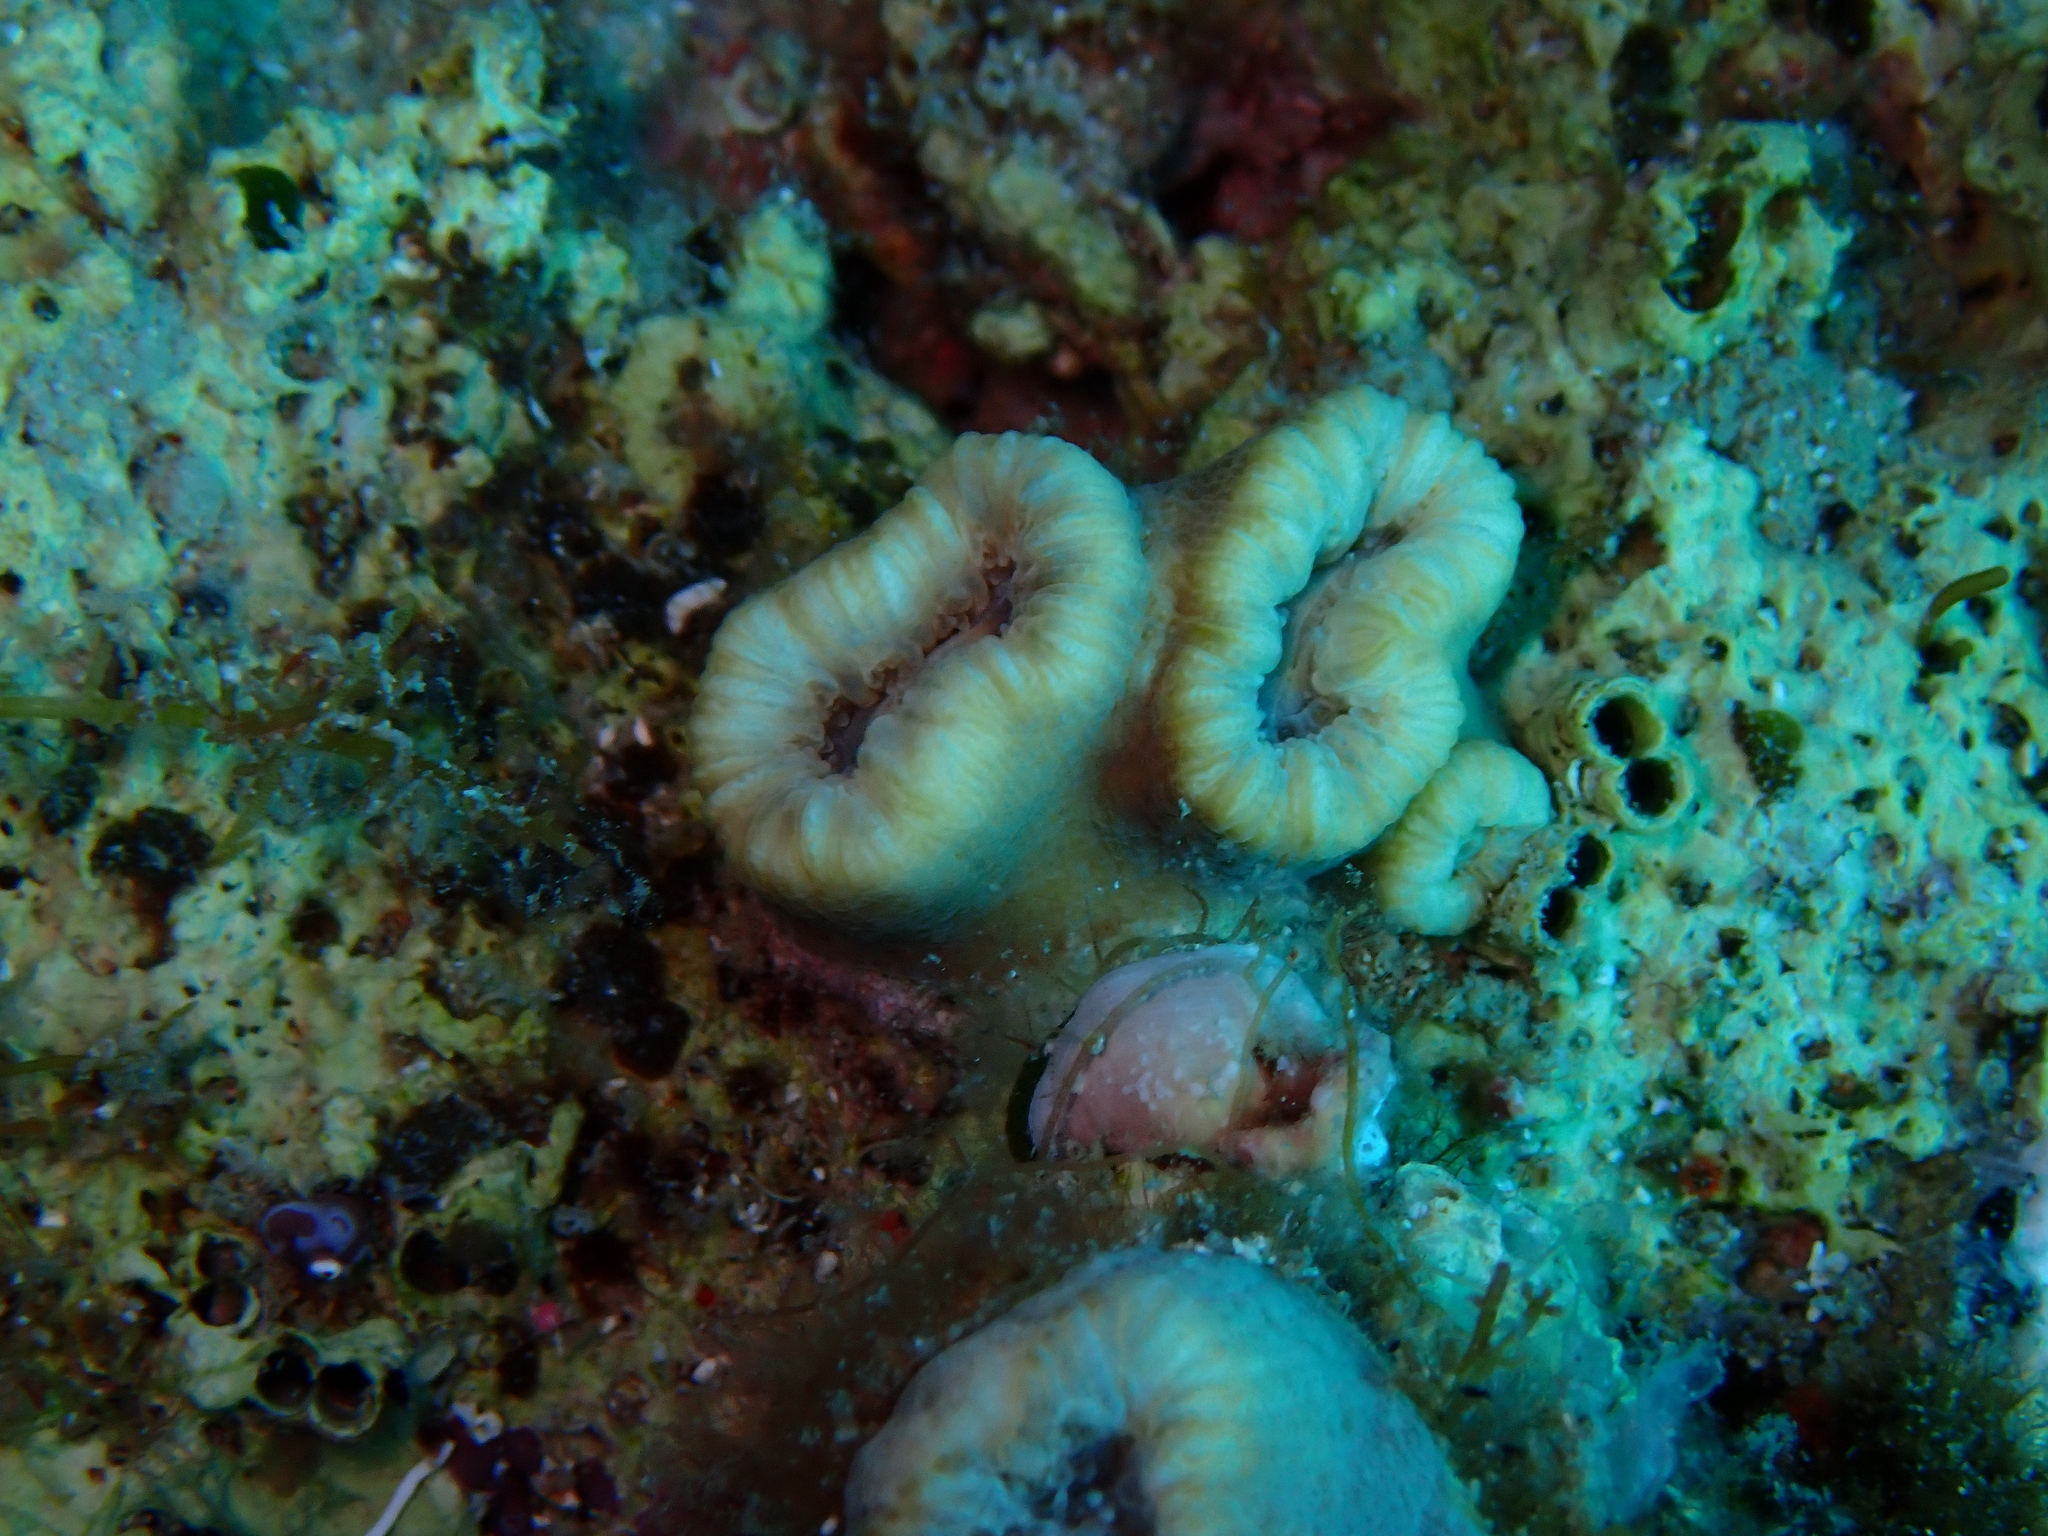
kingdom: Animalia
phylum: Cnidaria
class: Anthozoa
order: Scleractinia
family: Dendrophylliidae
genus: Balanophyllia
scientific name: Balanophyllia europaea
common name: Scarlet coral
